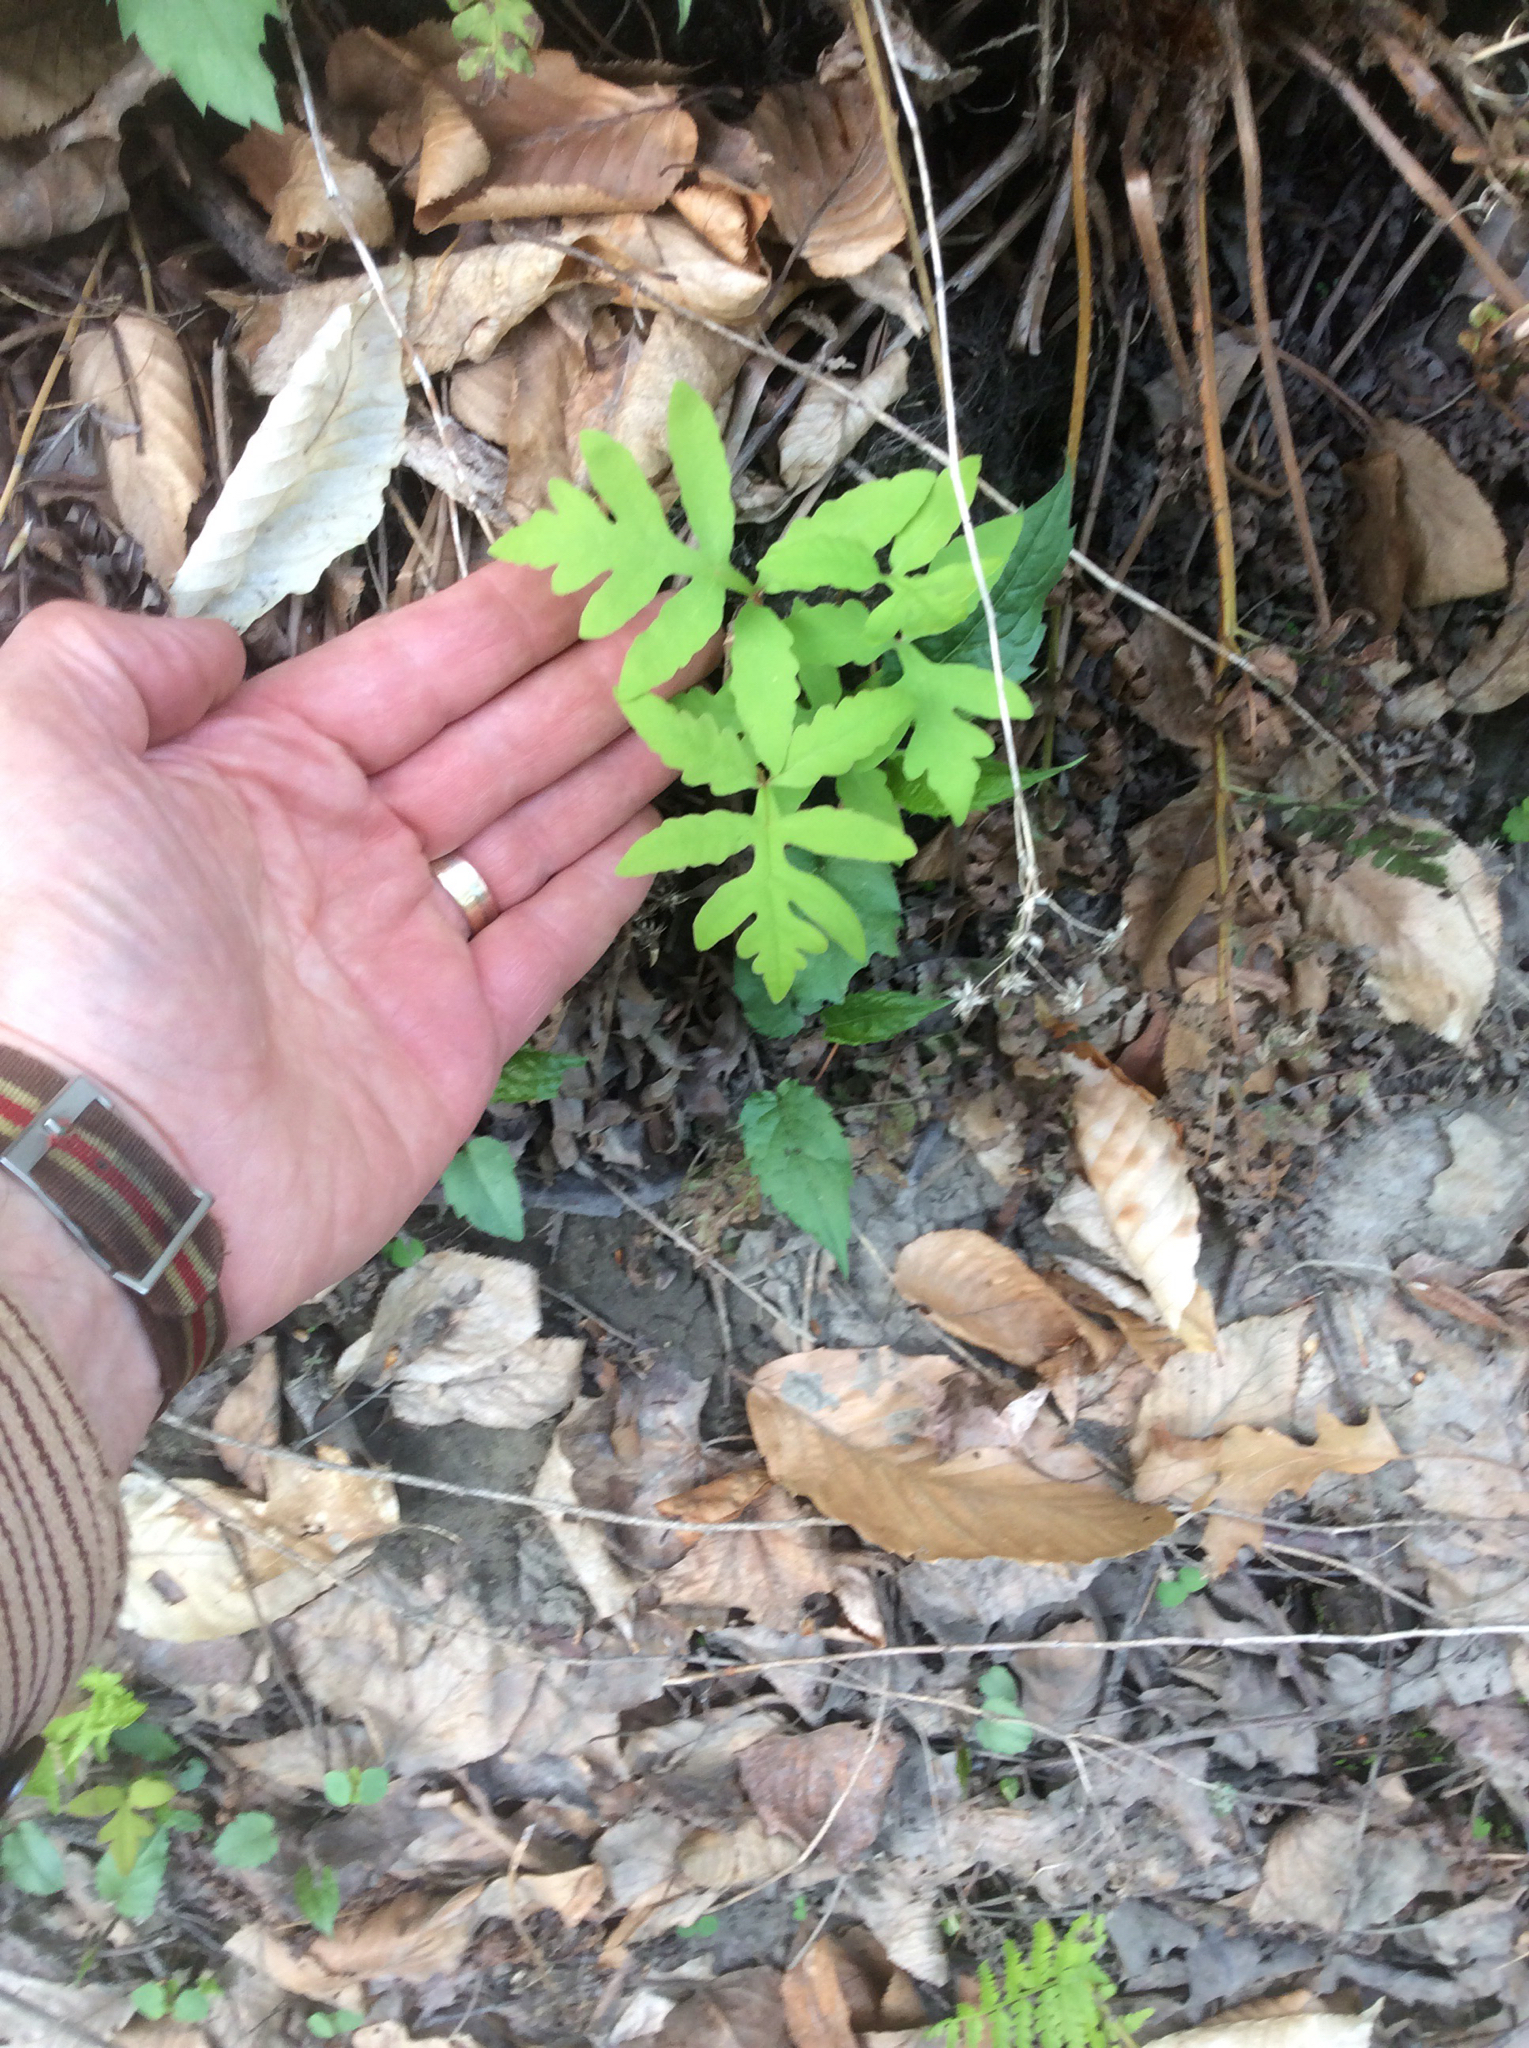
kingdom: Plantae
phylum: Tracheophyta
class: Polypodiopsida
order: Polypodiales
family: Onocleaceae
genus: Onoclea
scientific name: Onoclea sensibilis
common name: Sensitive fern
